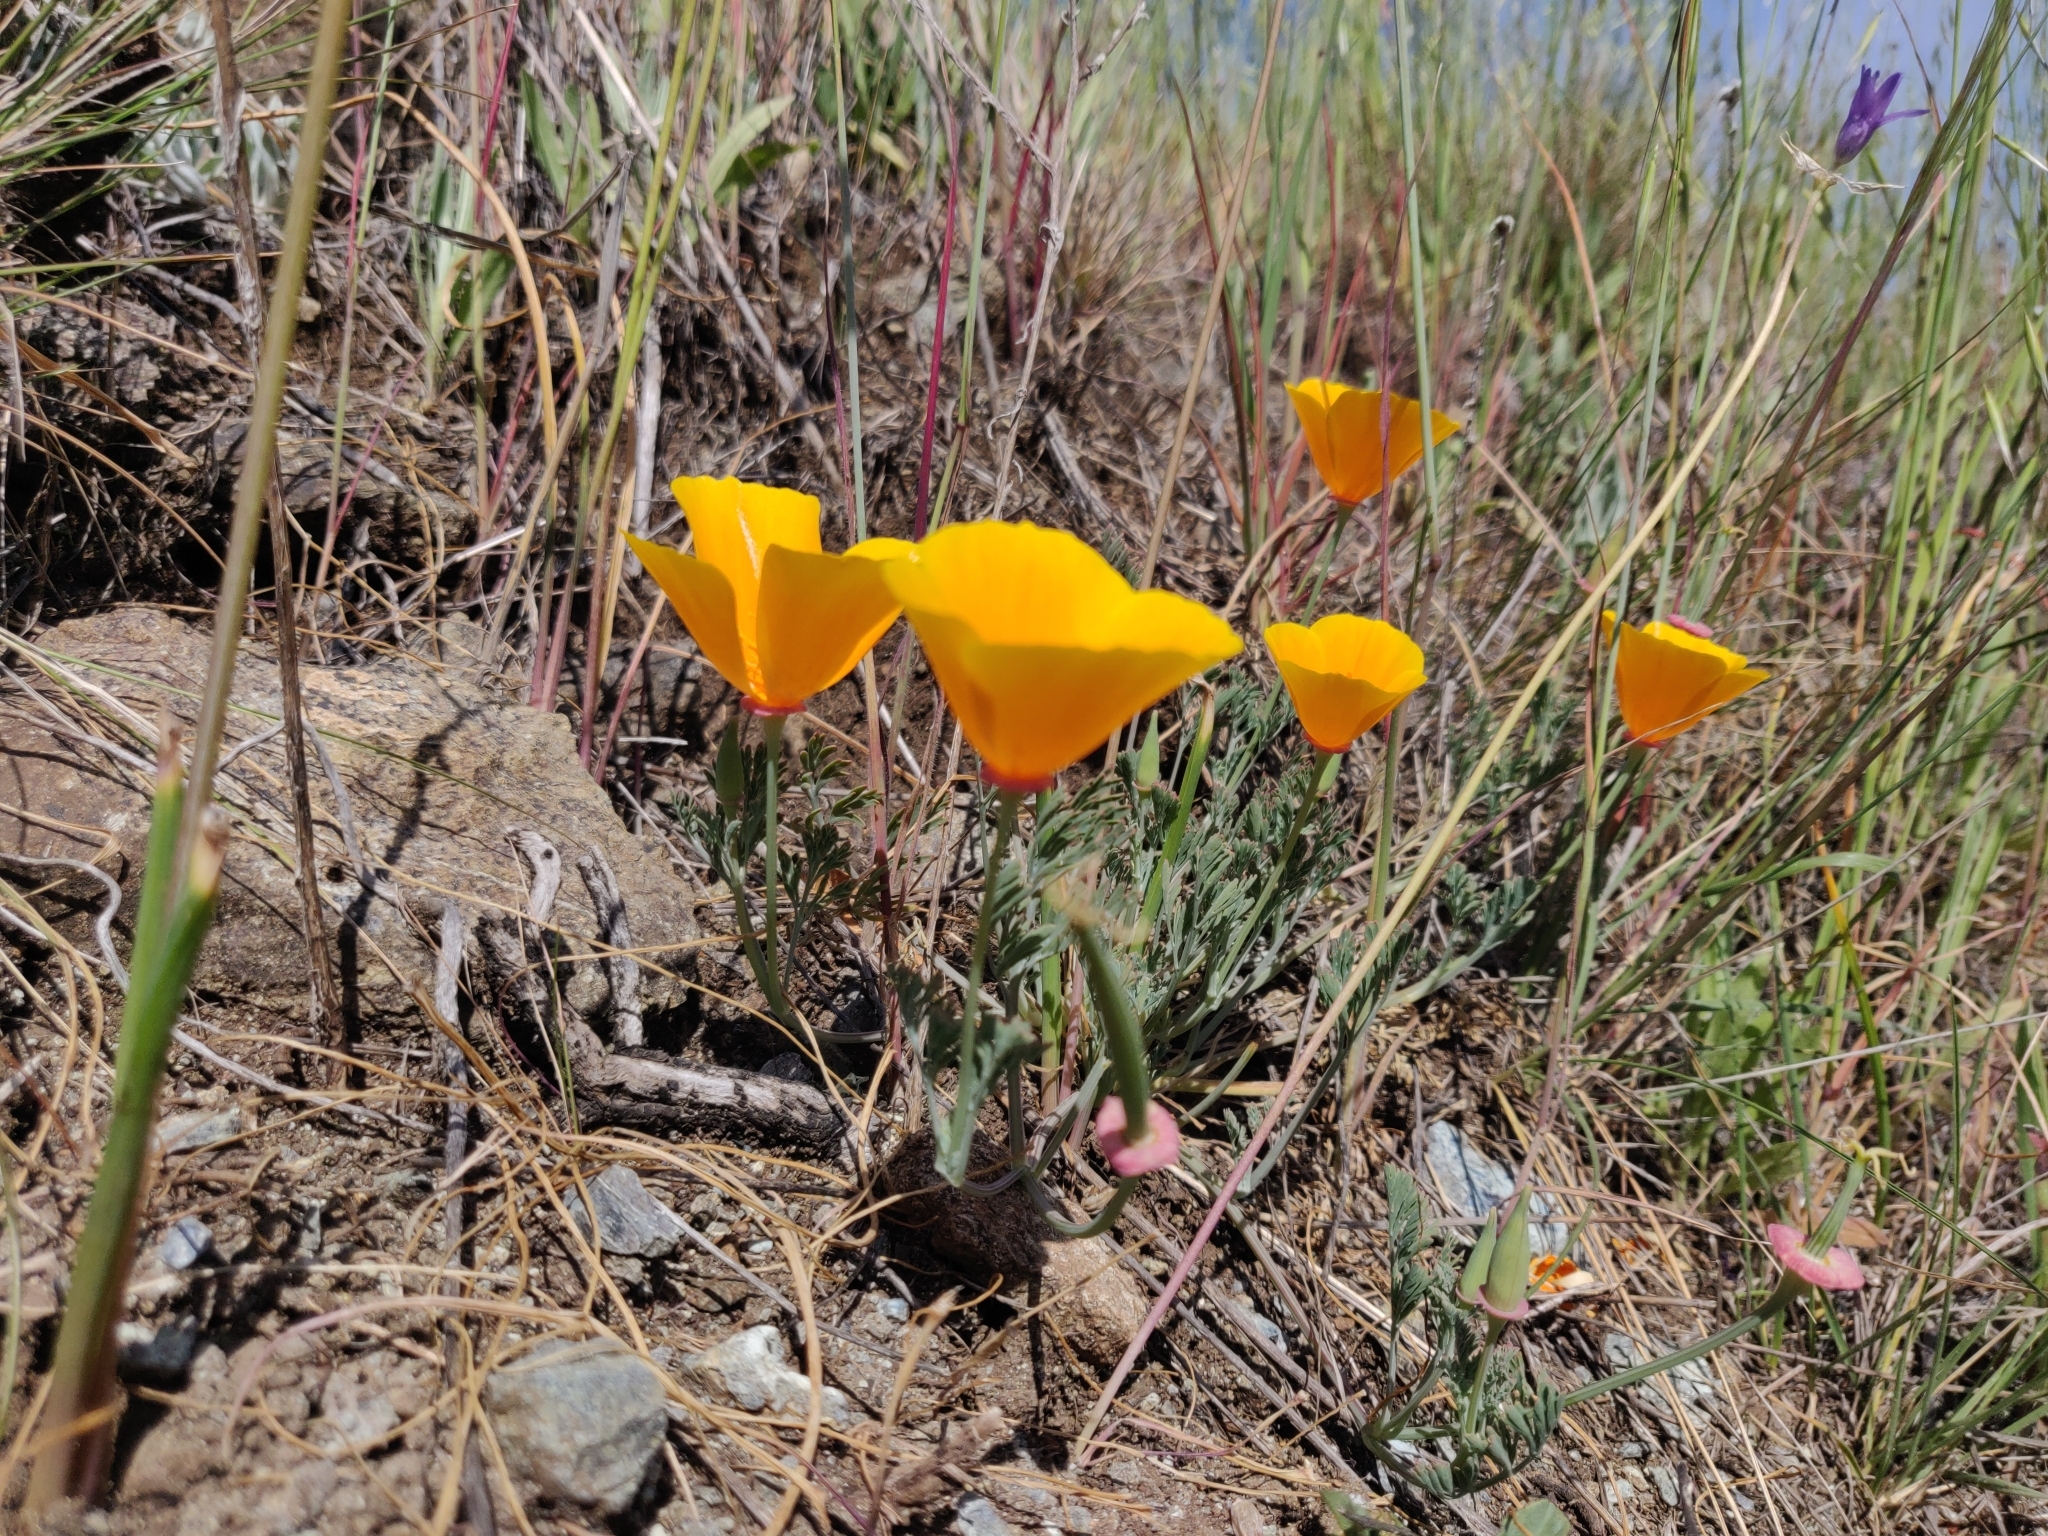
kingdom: Plantae
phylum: Tracheophyta
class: Magnoliopsida
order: Ranunculales
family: Papaveraceae
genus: Eschscholzia
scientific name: Eschscholzia californica
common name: California poppy
